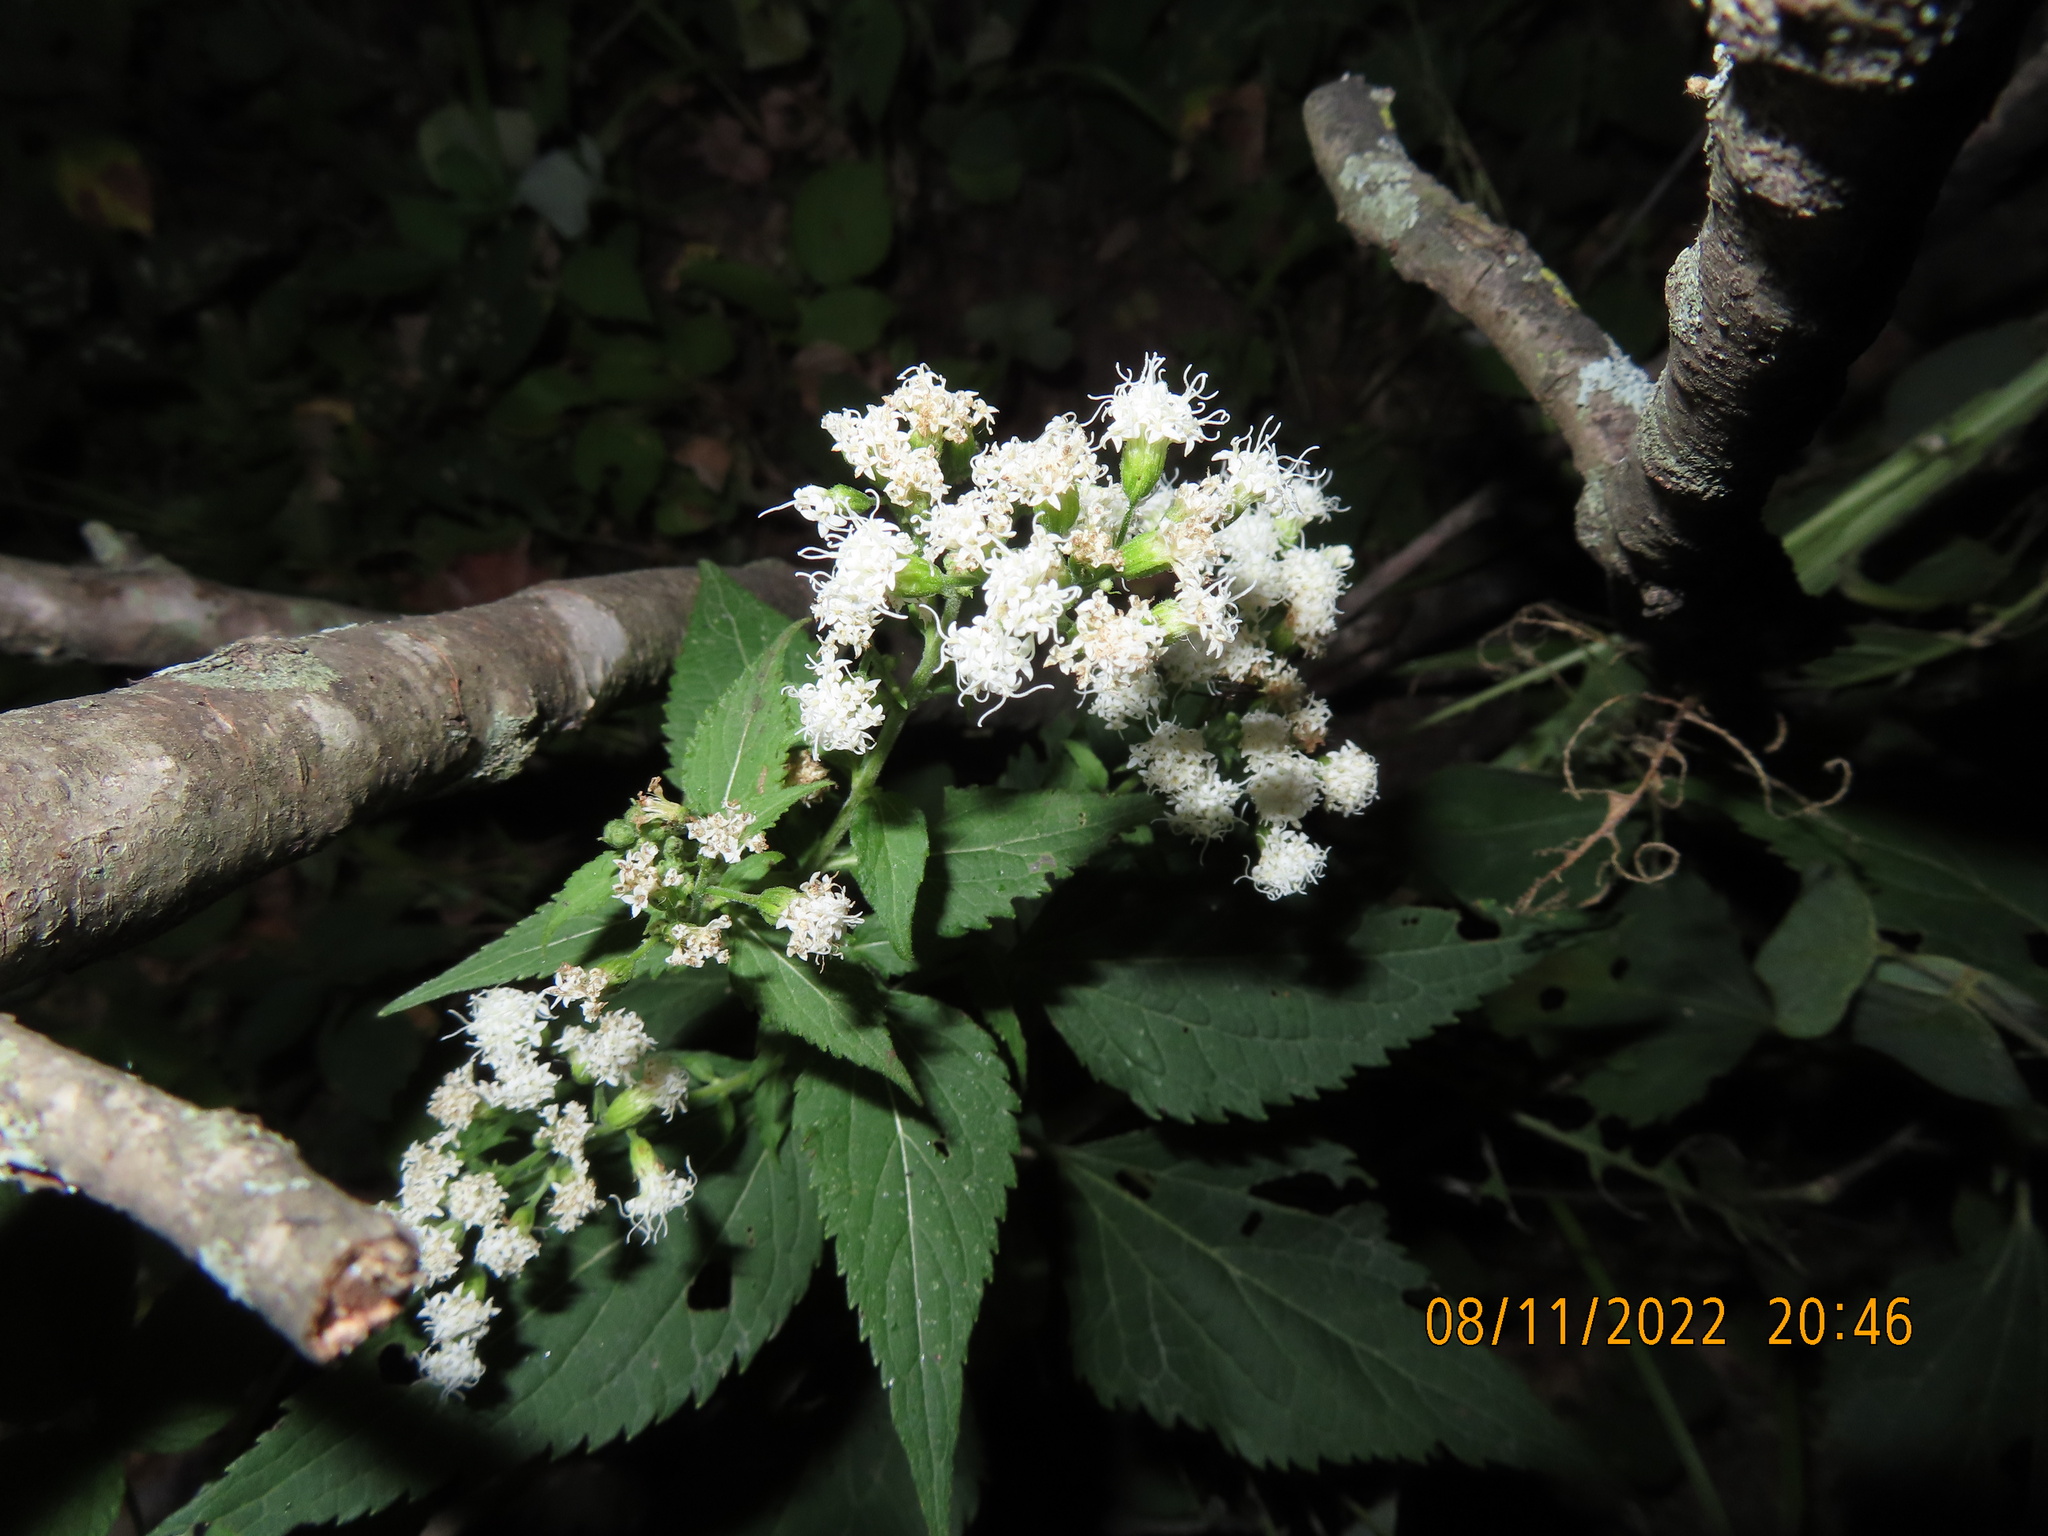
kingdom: Plantae
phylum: Tracheophyta
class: Magnoliopsida
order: Asterales
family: Asteraceae
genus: Ageratina
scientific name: Ageratina altissima
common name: White snakeroot
